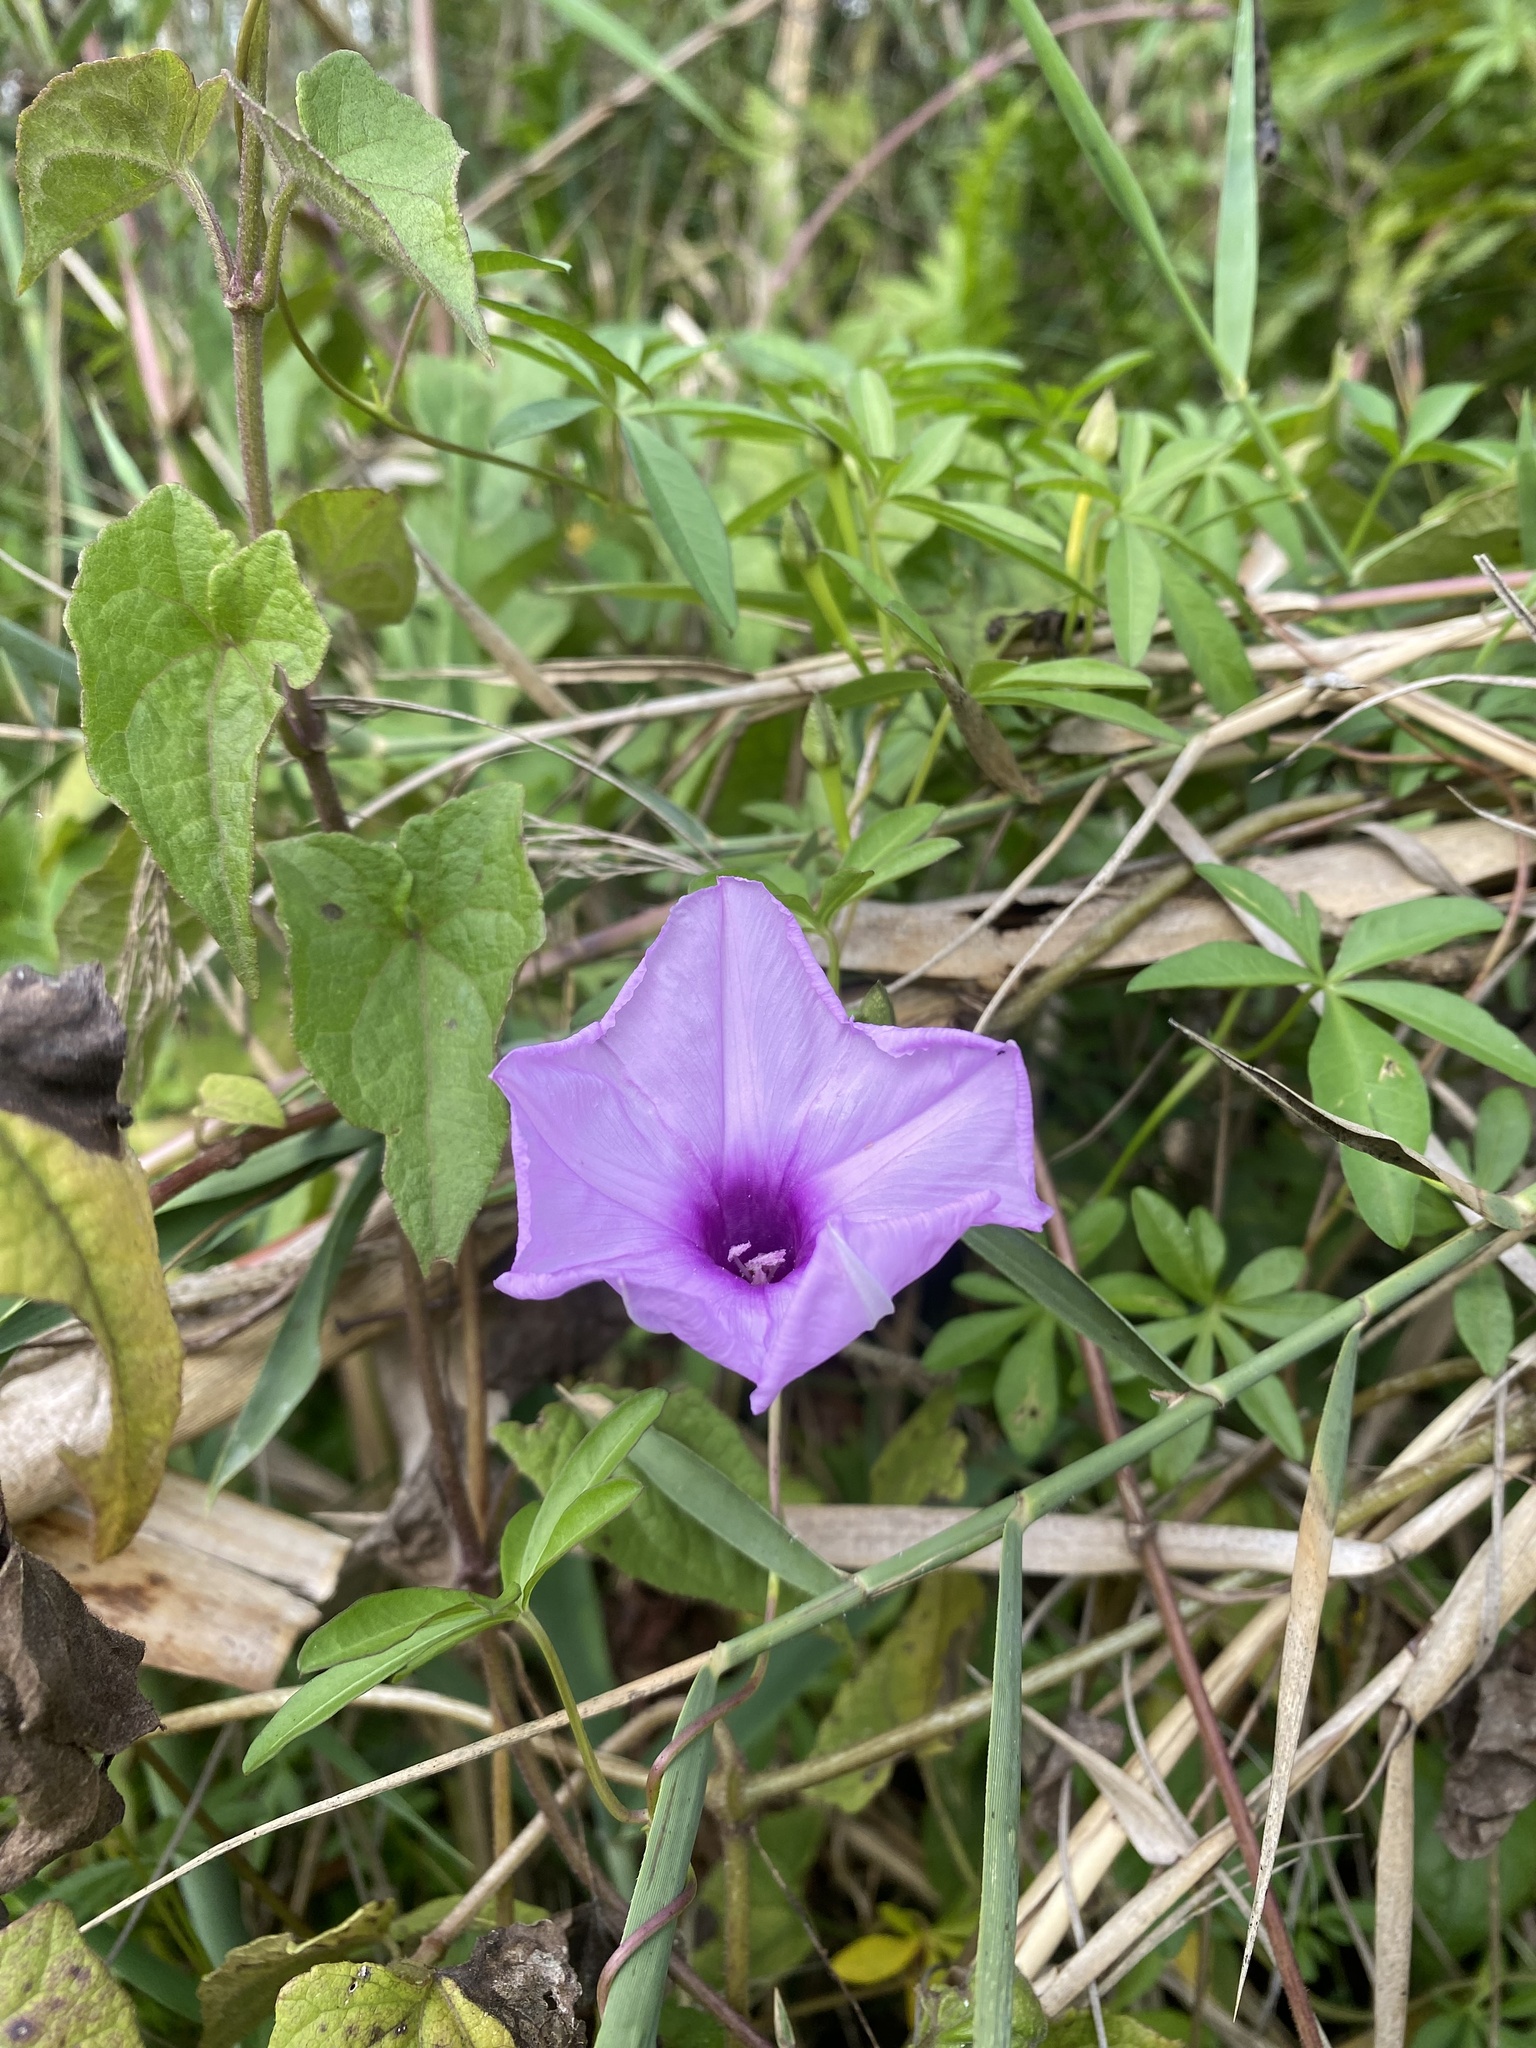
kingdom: Plantae
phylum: Tracheophyta
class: Magnoliopsida
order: Solanales
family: Convolvulaceae
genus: Ipomoea
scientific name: Ipomoea cairica
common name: Mile a minute vine
